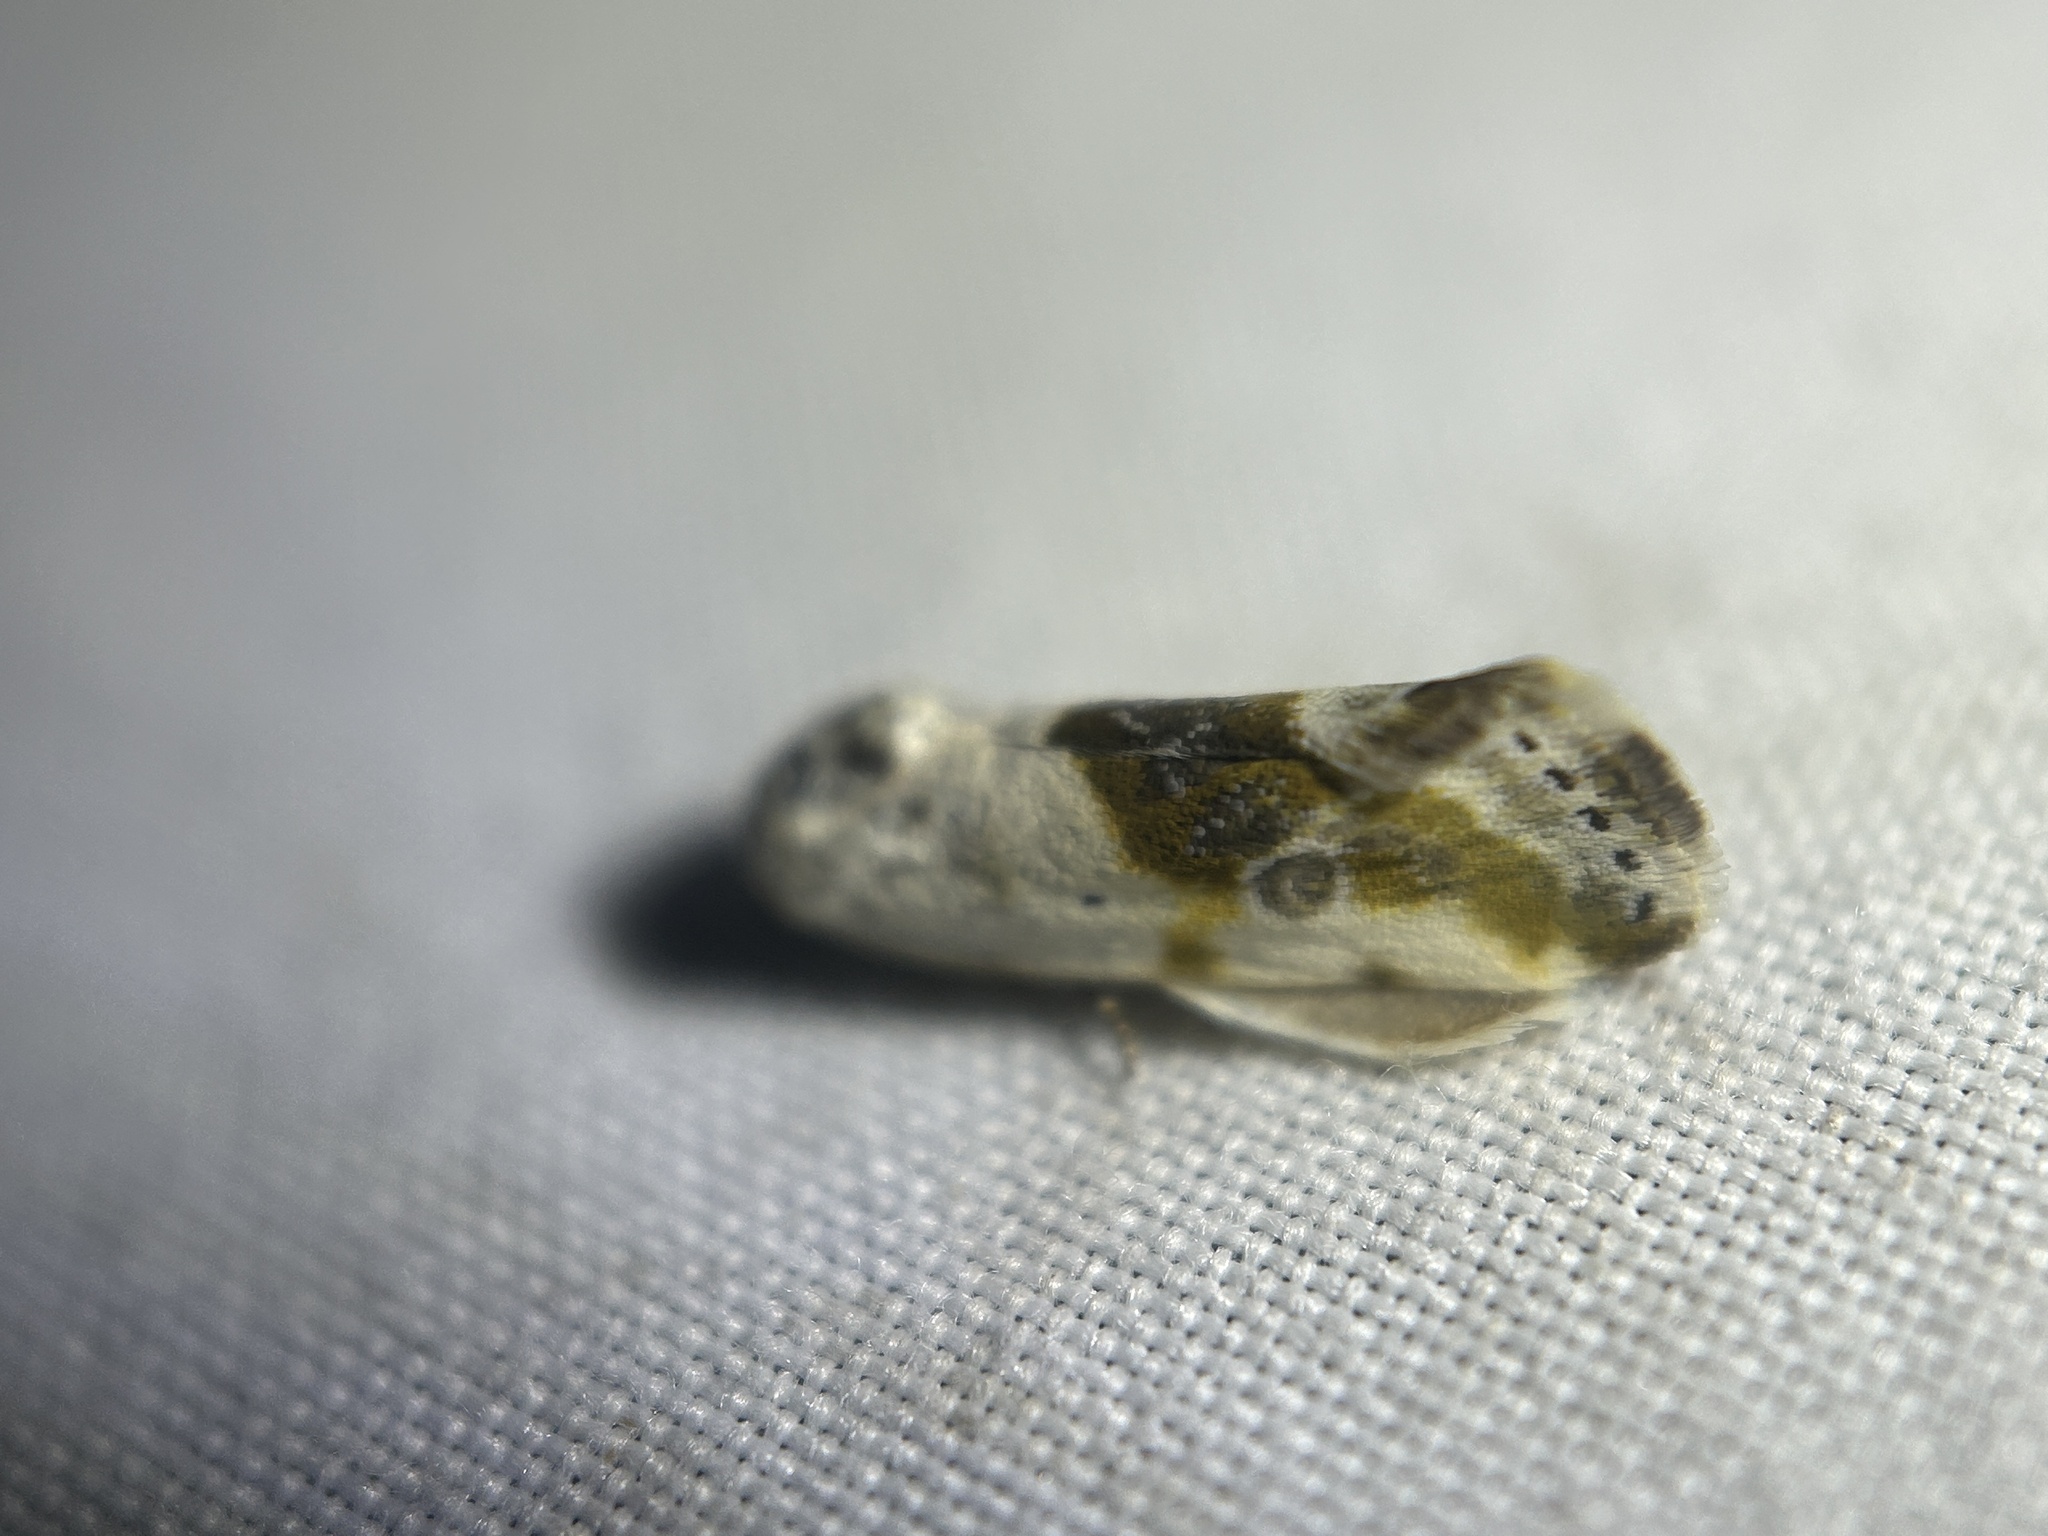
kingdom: Animalia
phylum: Arthropoda
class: Insecta
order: Lepidoptera
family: Noctuidae
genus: Acontia
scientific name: Acontia candefacta
